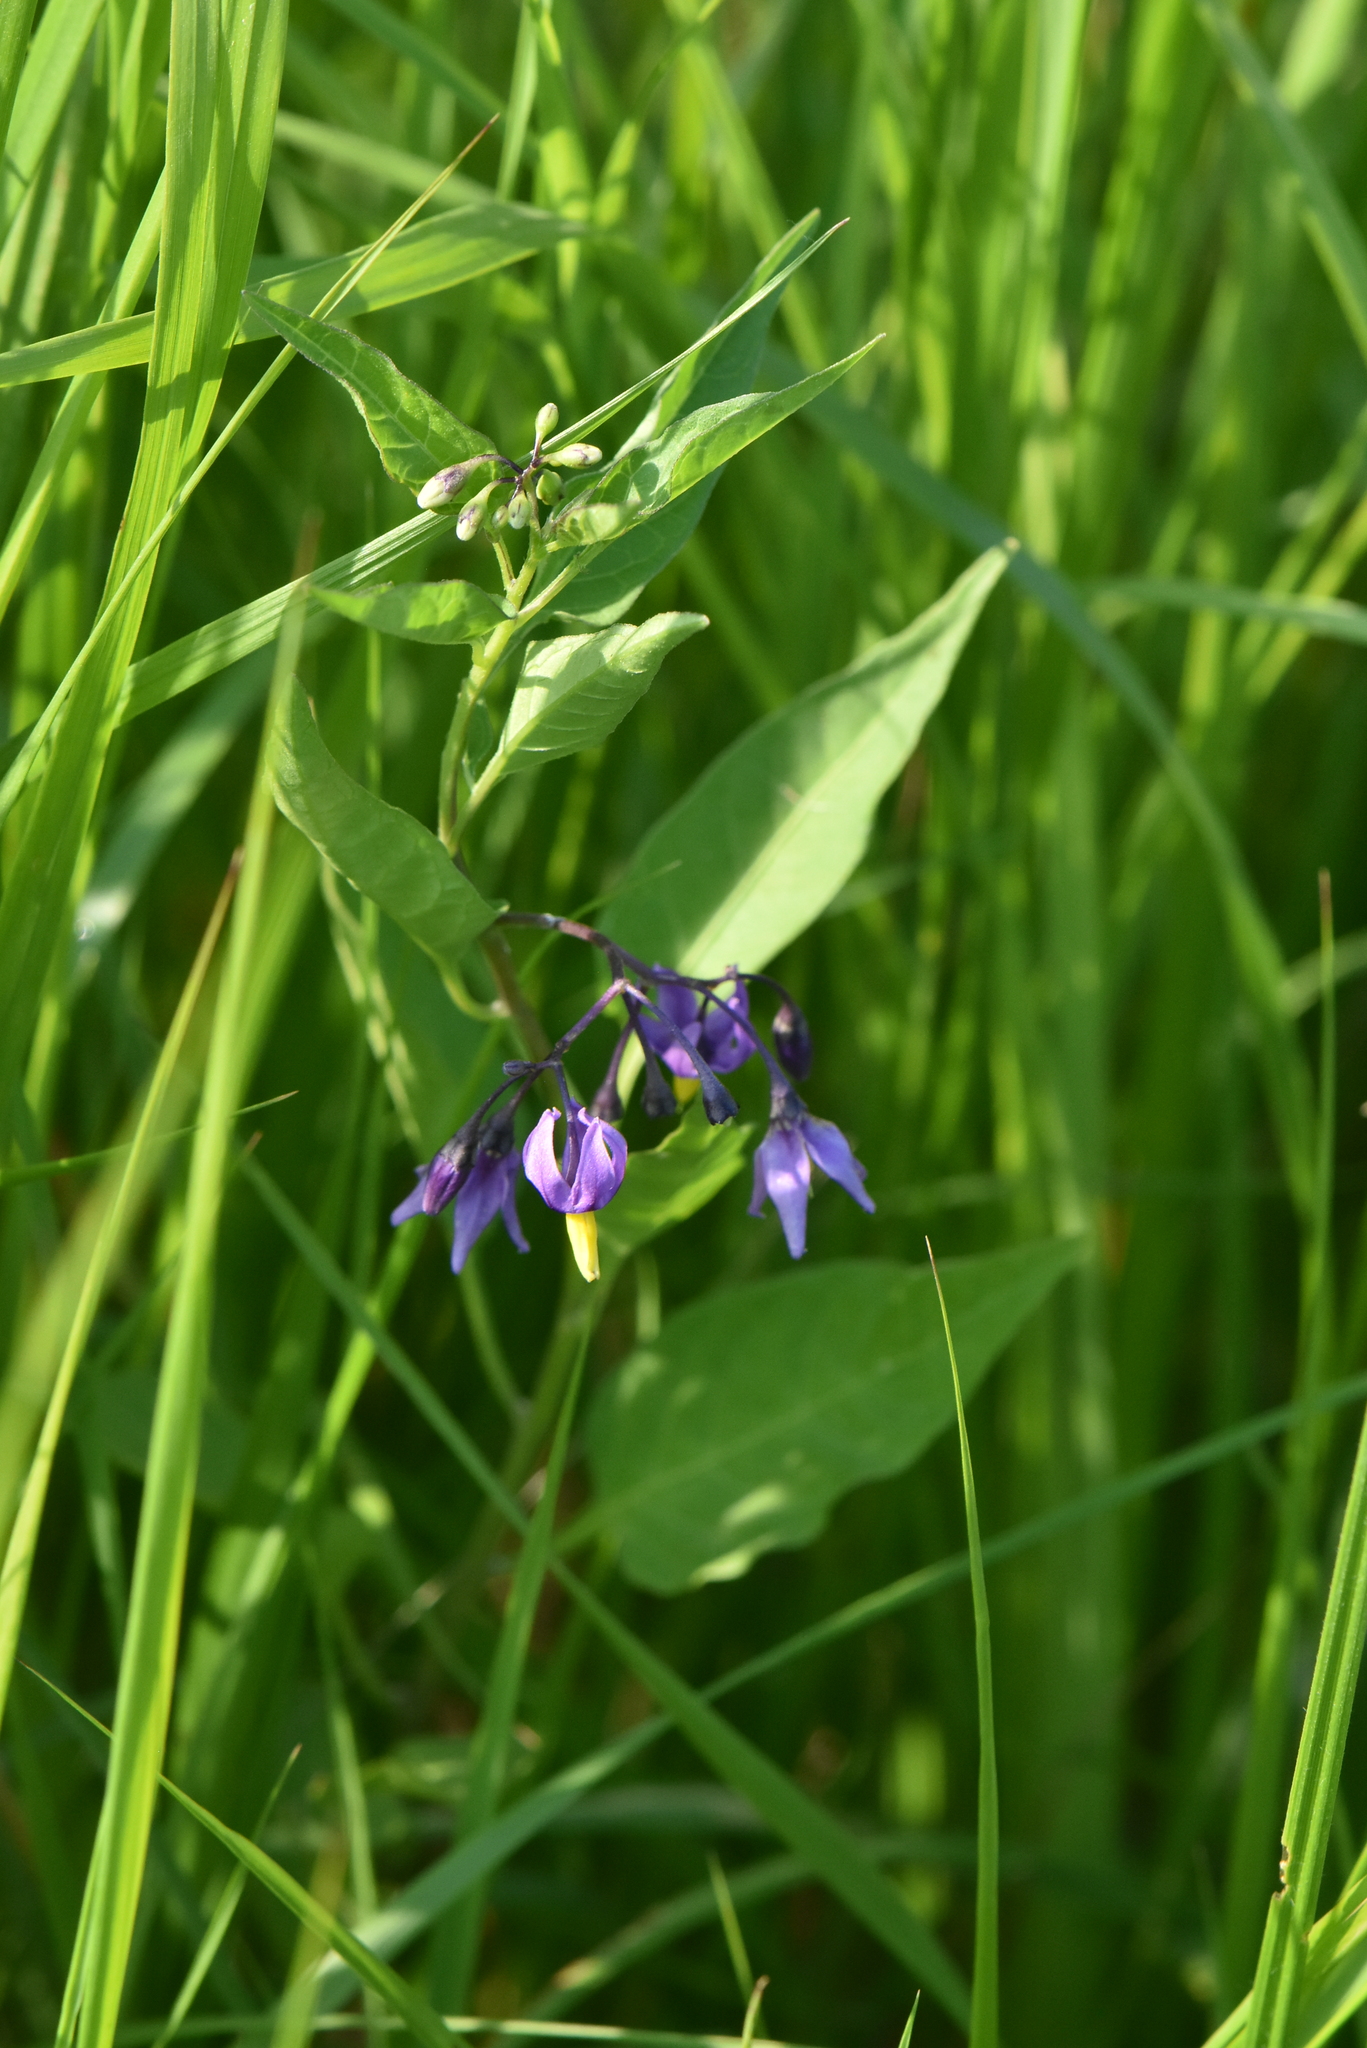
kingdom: Plantae
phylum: Tracheophyta
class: Magnoliopsida
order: Solanales
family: Solanaceae
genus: Solanum
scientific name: Solanum dulcamara
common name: Climbing nightshade
